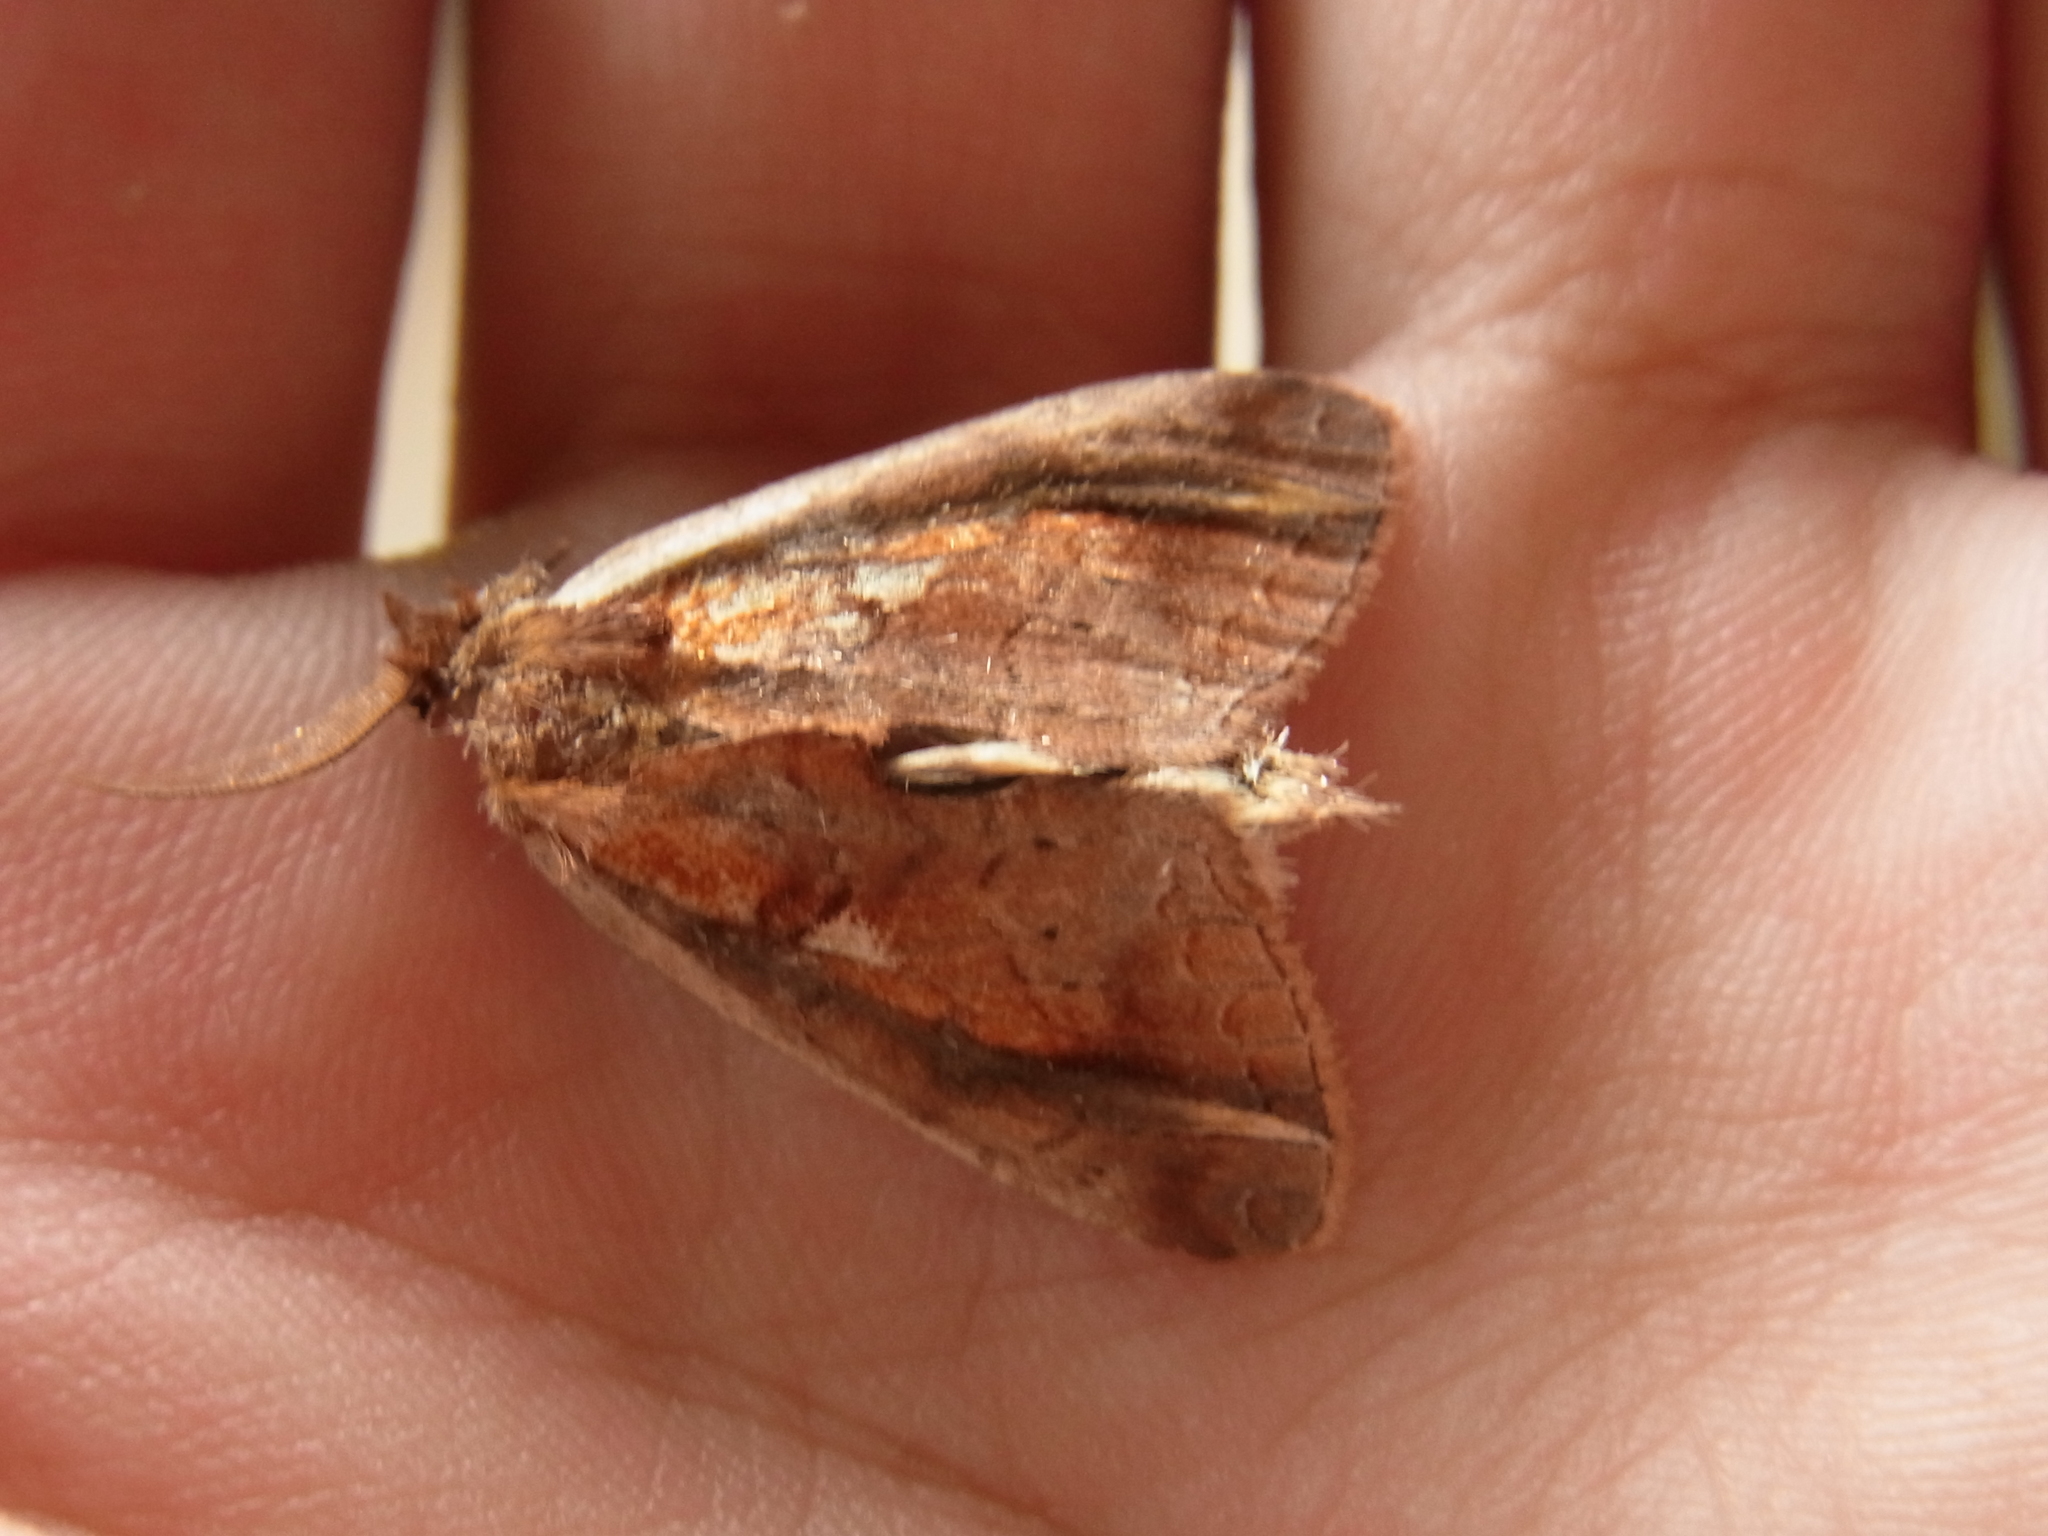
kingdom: Animalia
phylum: Arthropoda
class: Insecta
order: Lepidoptera
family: Notodontidae
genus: Rosama
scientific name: Rosama ornata
